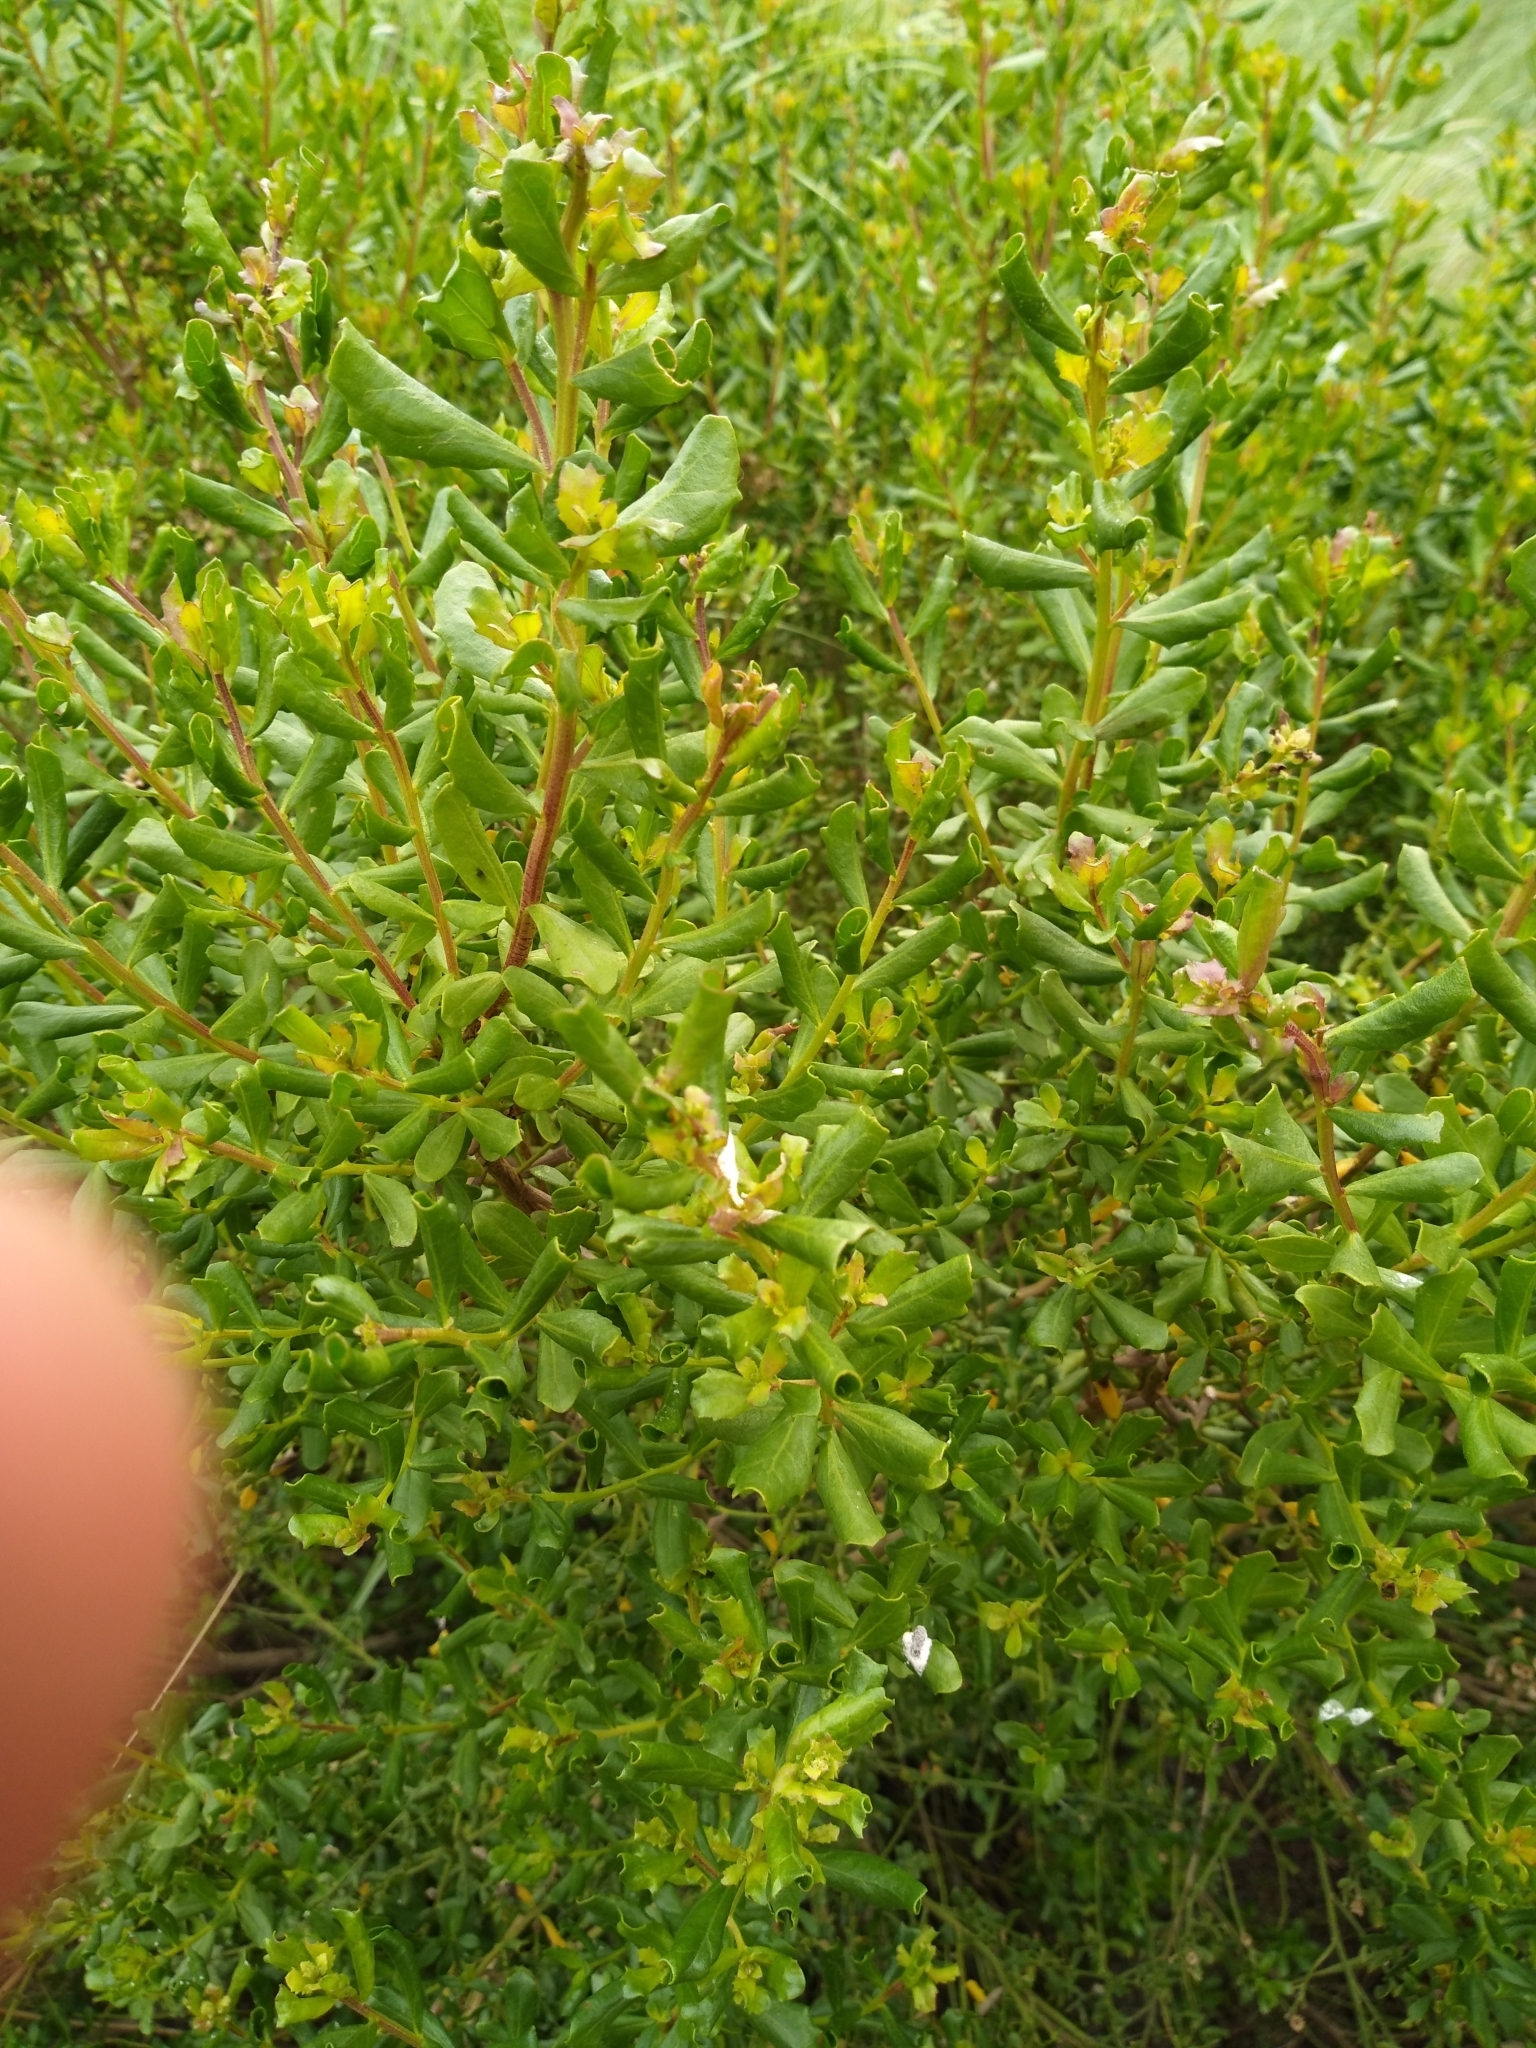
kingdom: Plantae
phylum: Tracheophyta
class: Magnoliopsida
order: Asterales
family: Asteraceae
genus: Baccharis
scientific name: Baccharis pilularis
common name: Coyotebrush
